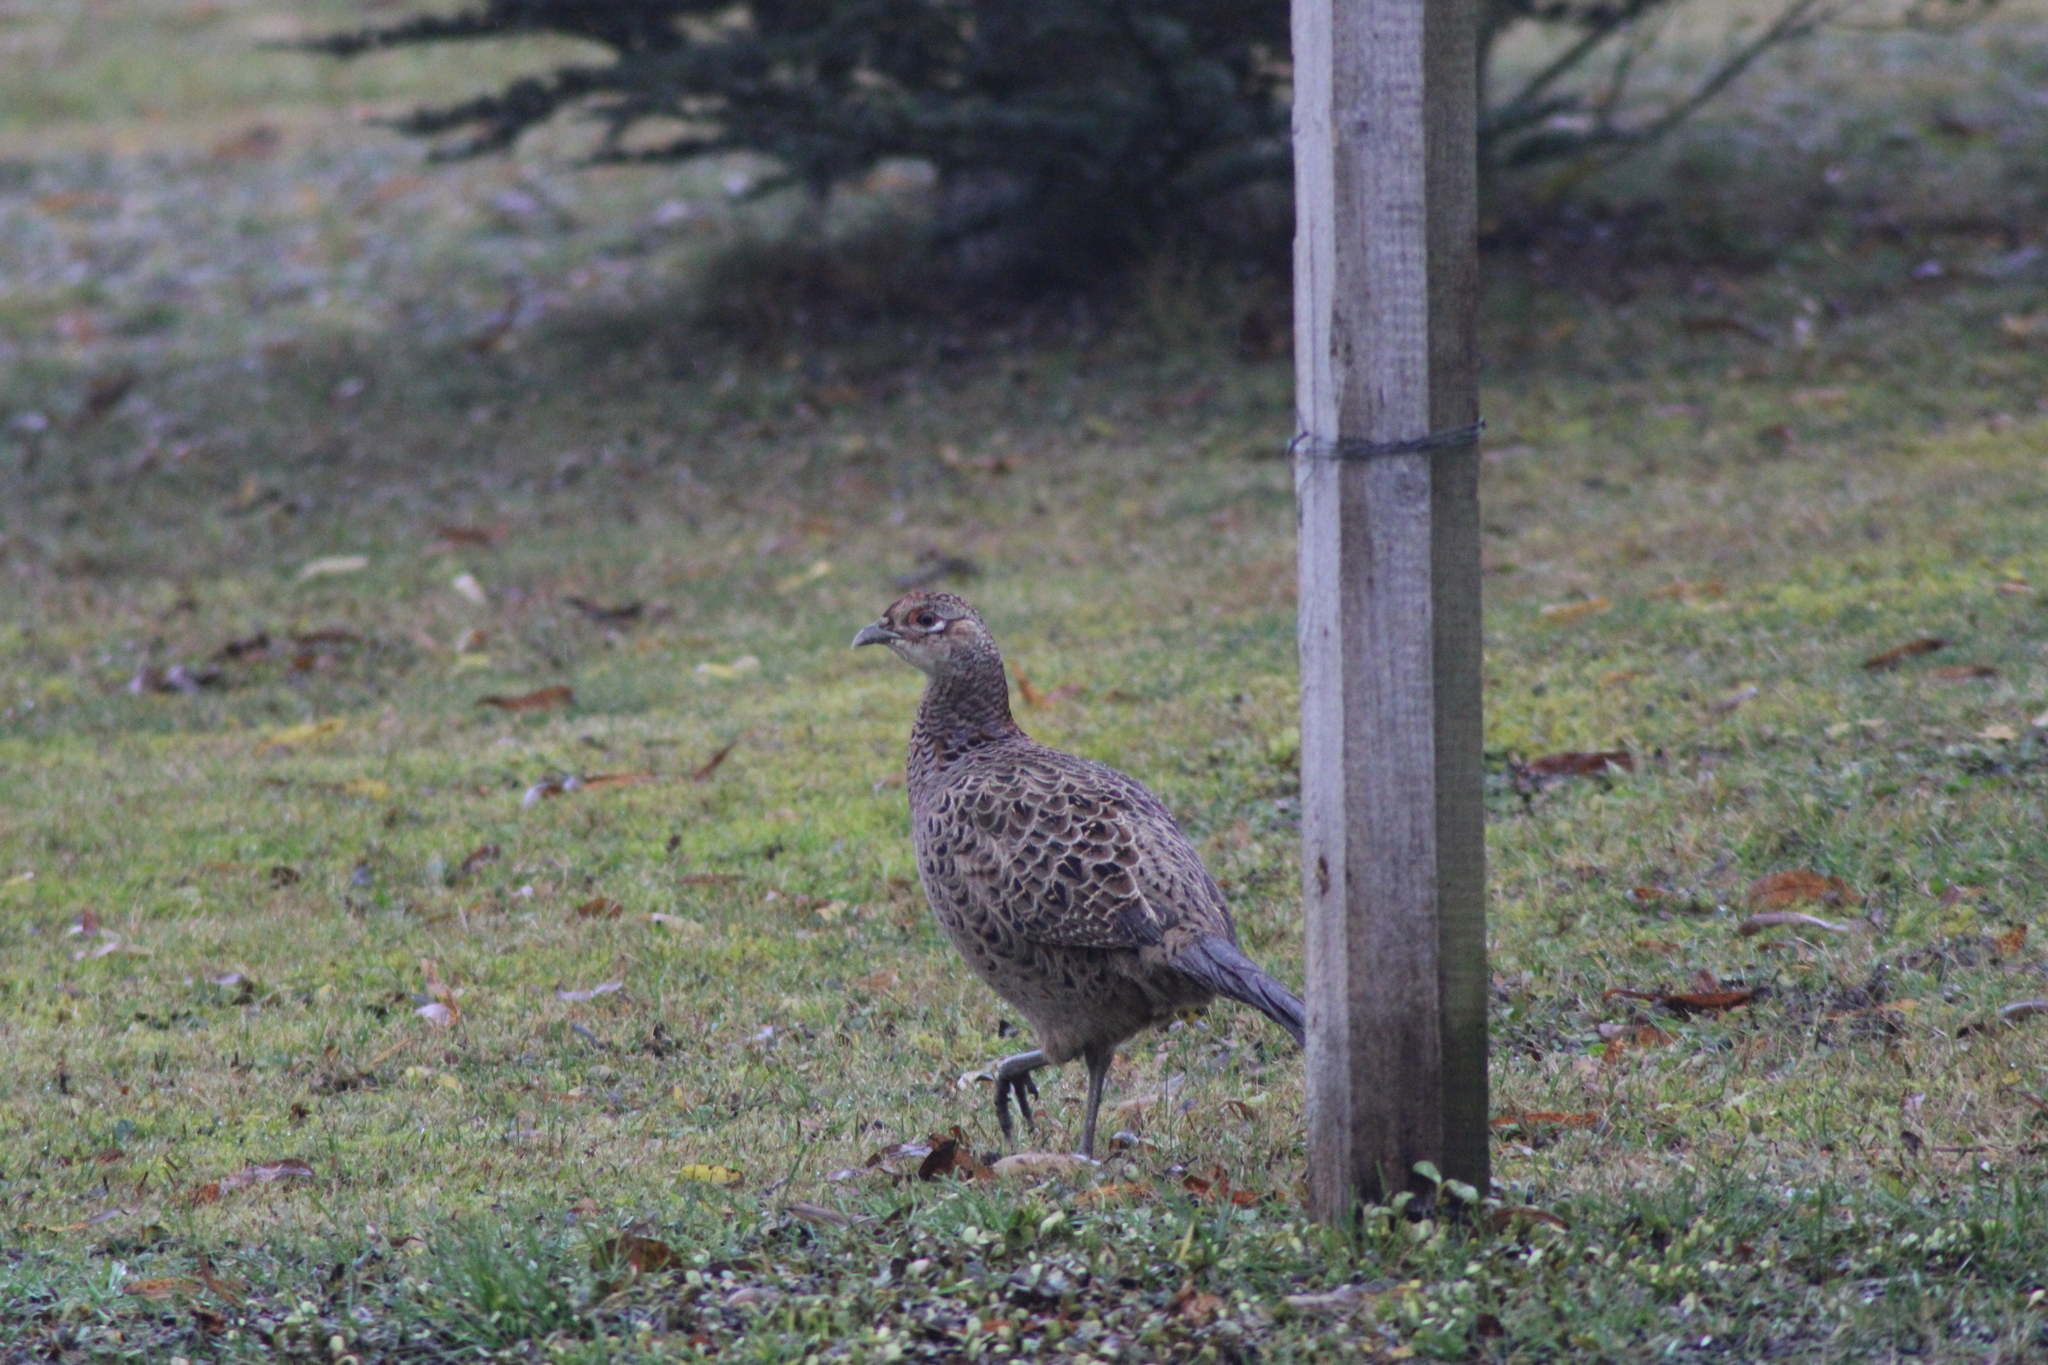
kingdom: Animalia
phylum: Chordata
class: Aves
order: Galliformes
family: Phasianidae
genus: Phasianus
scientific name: Phasianus colchicus
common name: Common pheasant
